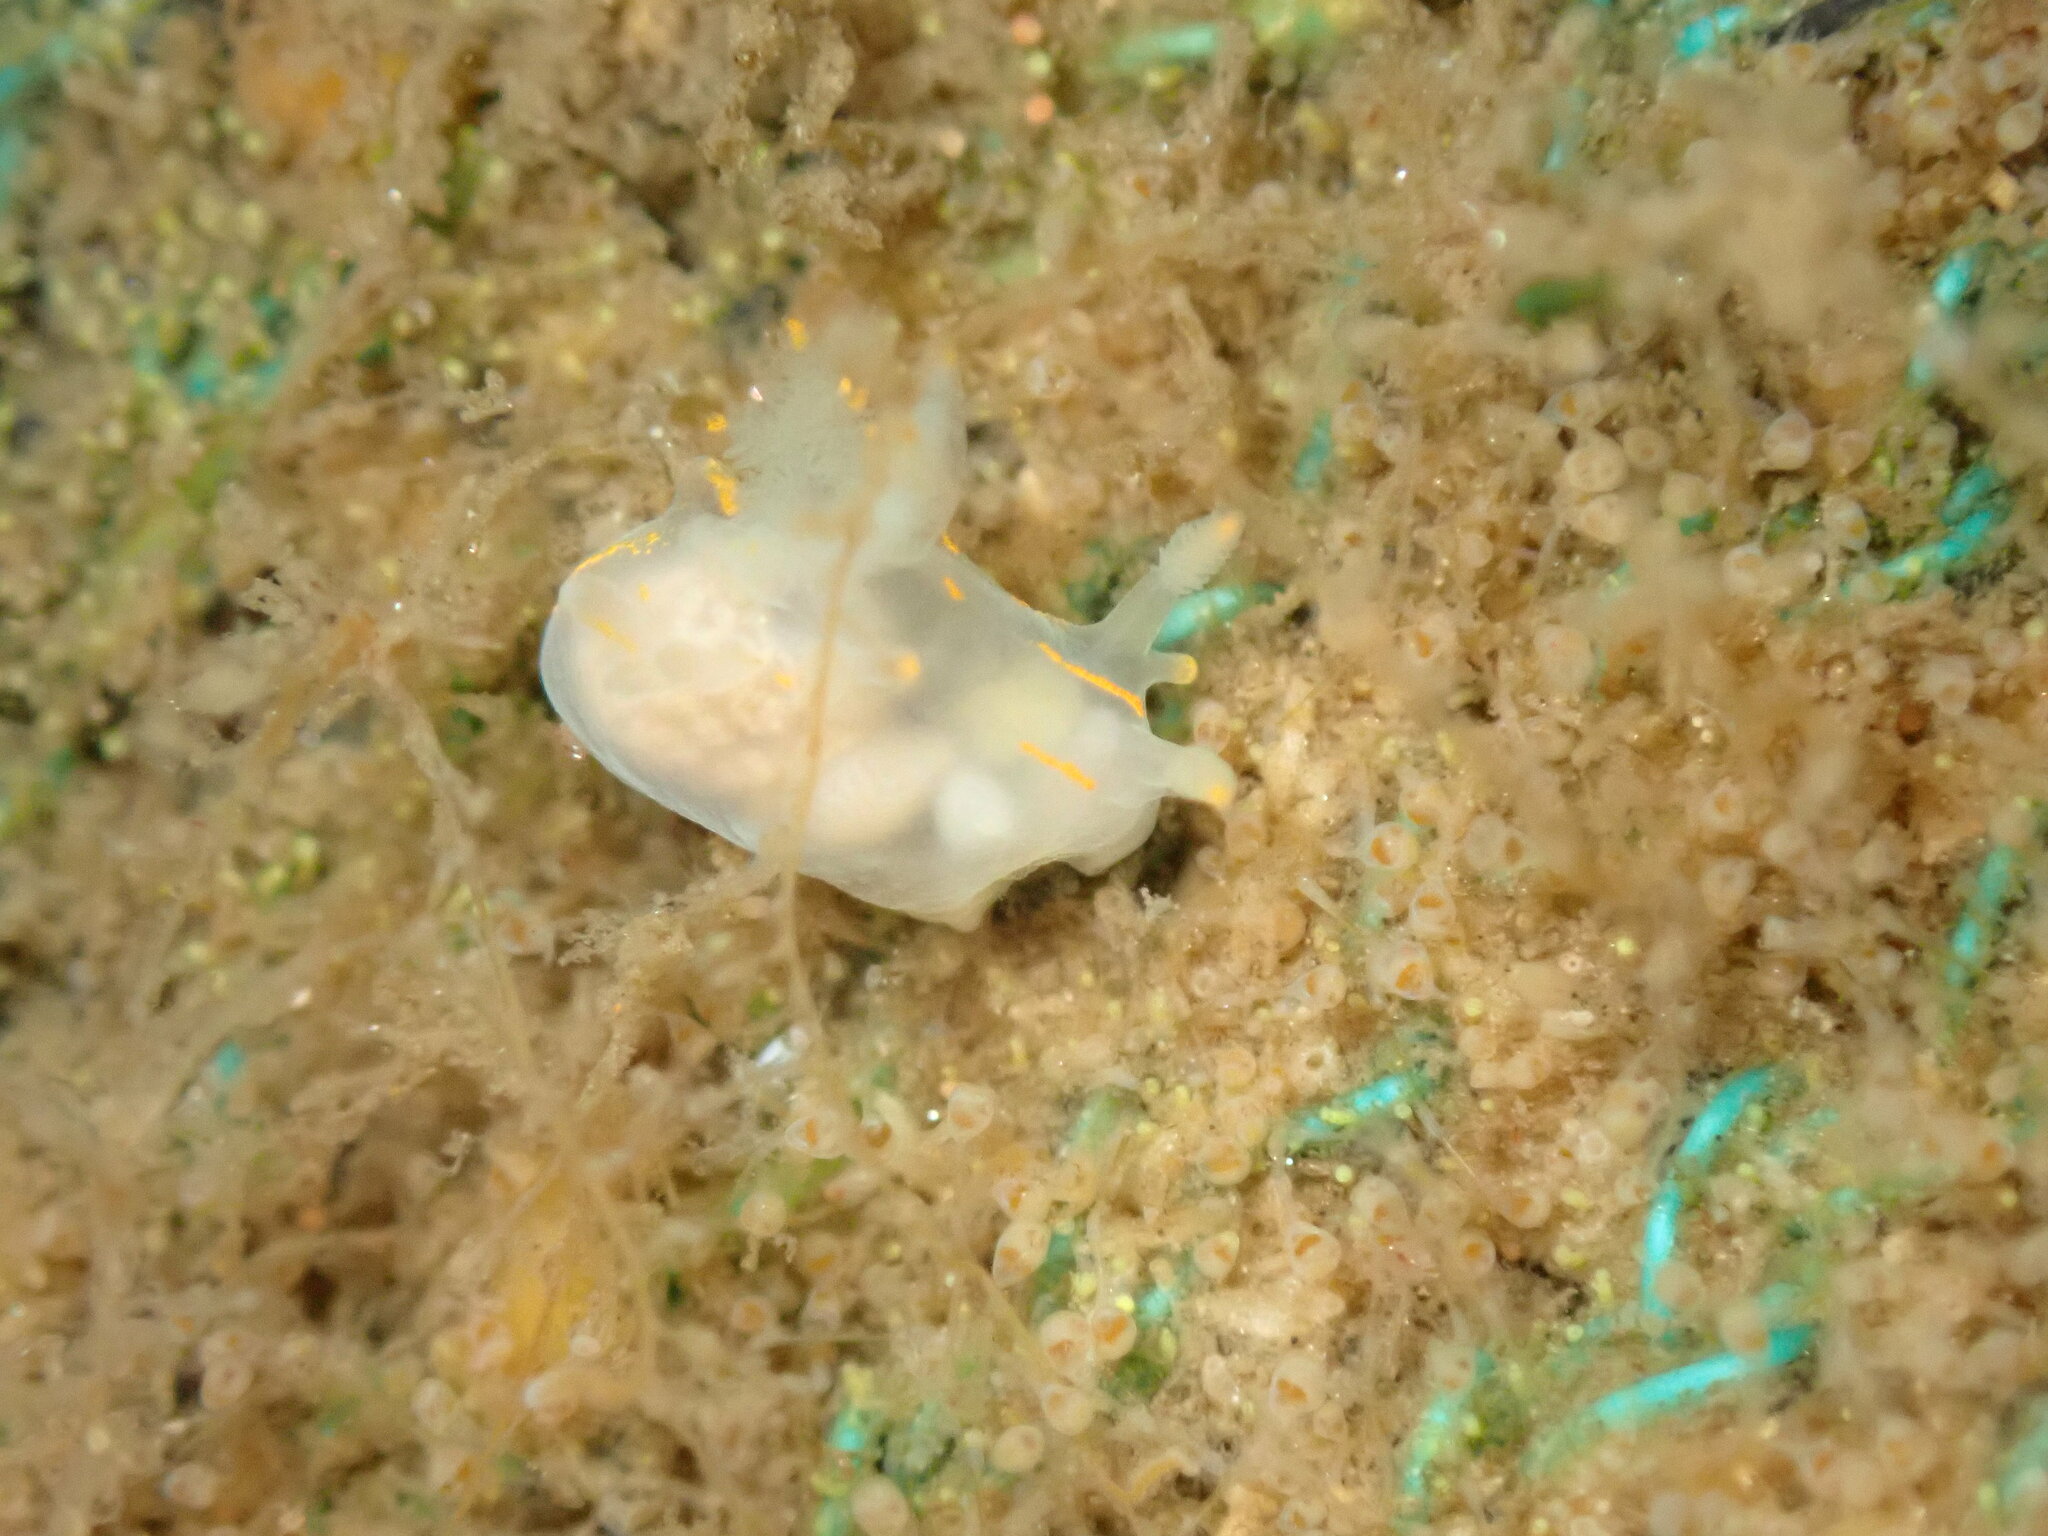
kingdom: Animalia
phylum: Mollusca
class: Gastropoda
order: Nudibranchia
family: Goniodorididae
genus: Ancula
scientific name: Ancula pacifica
